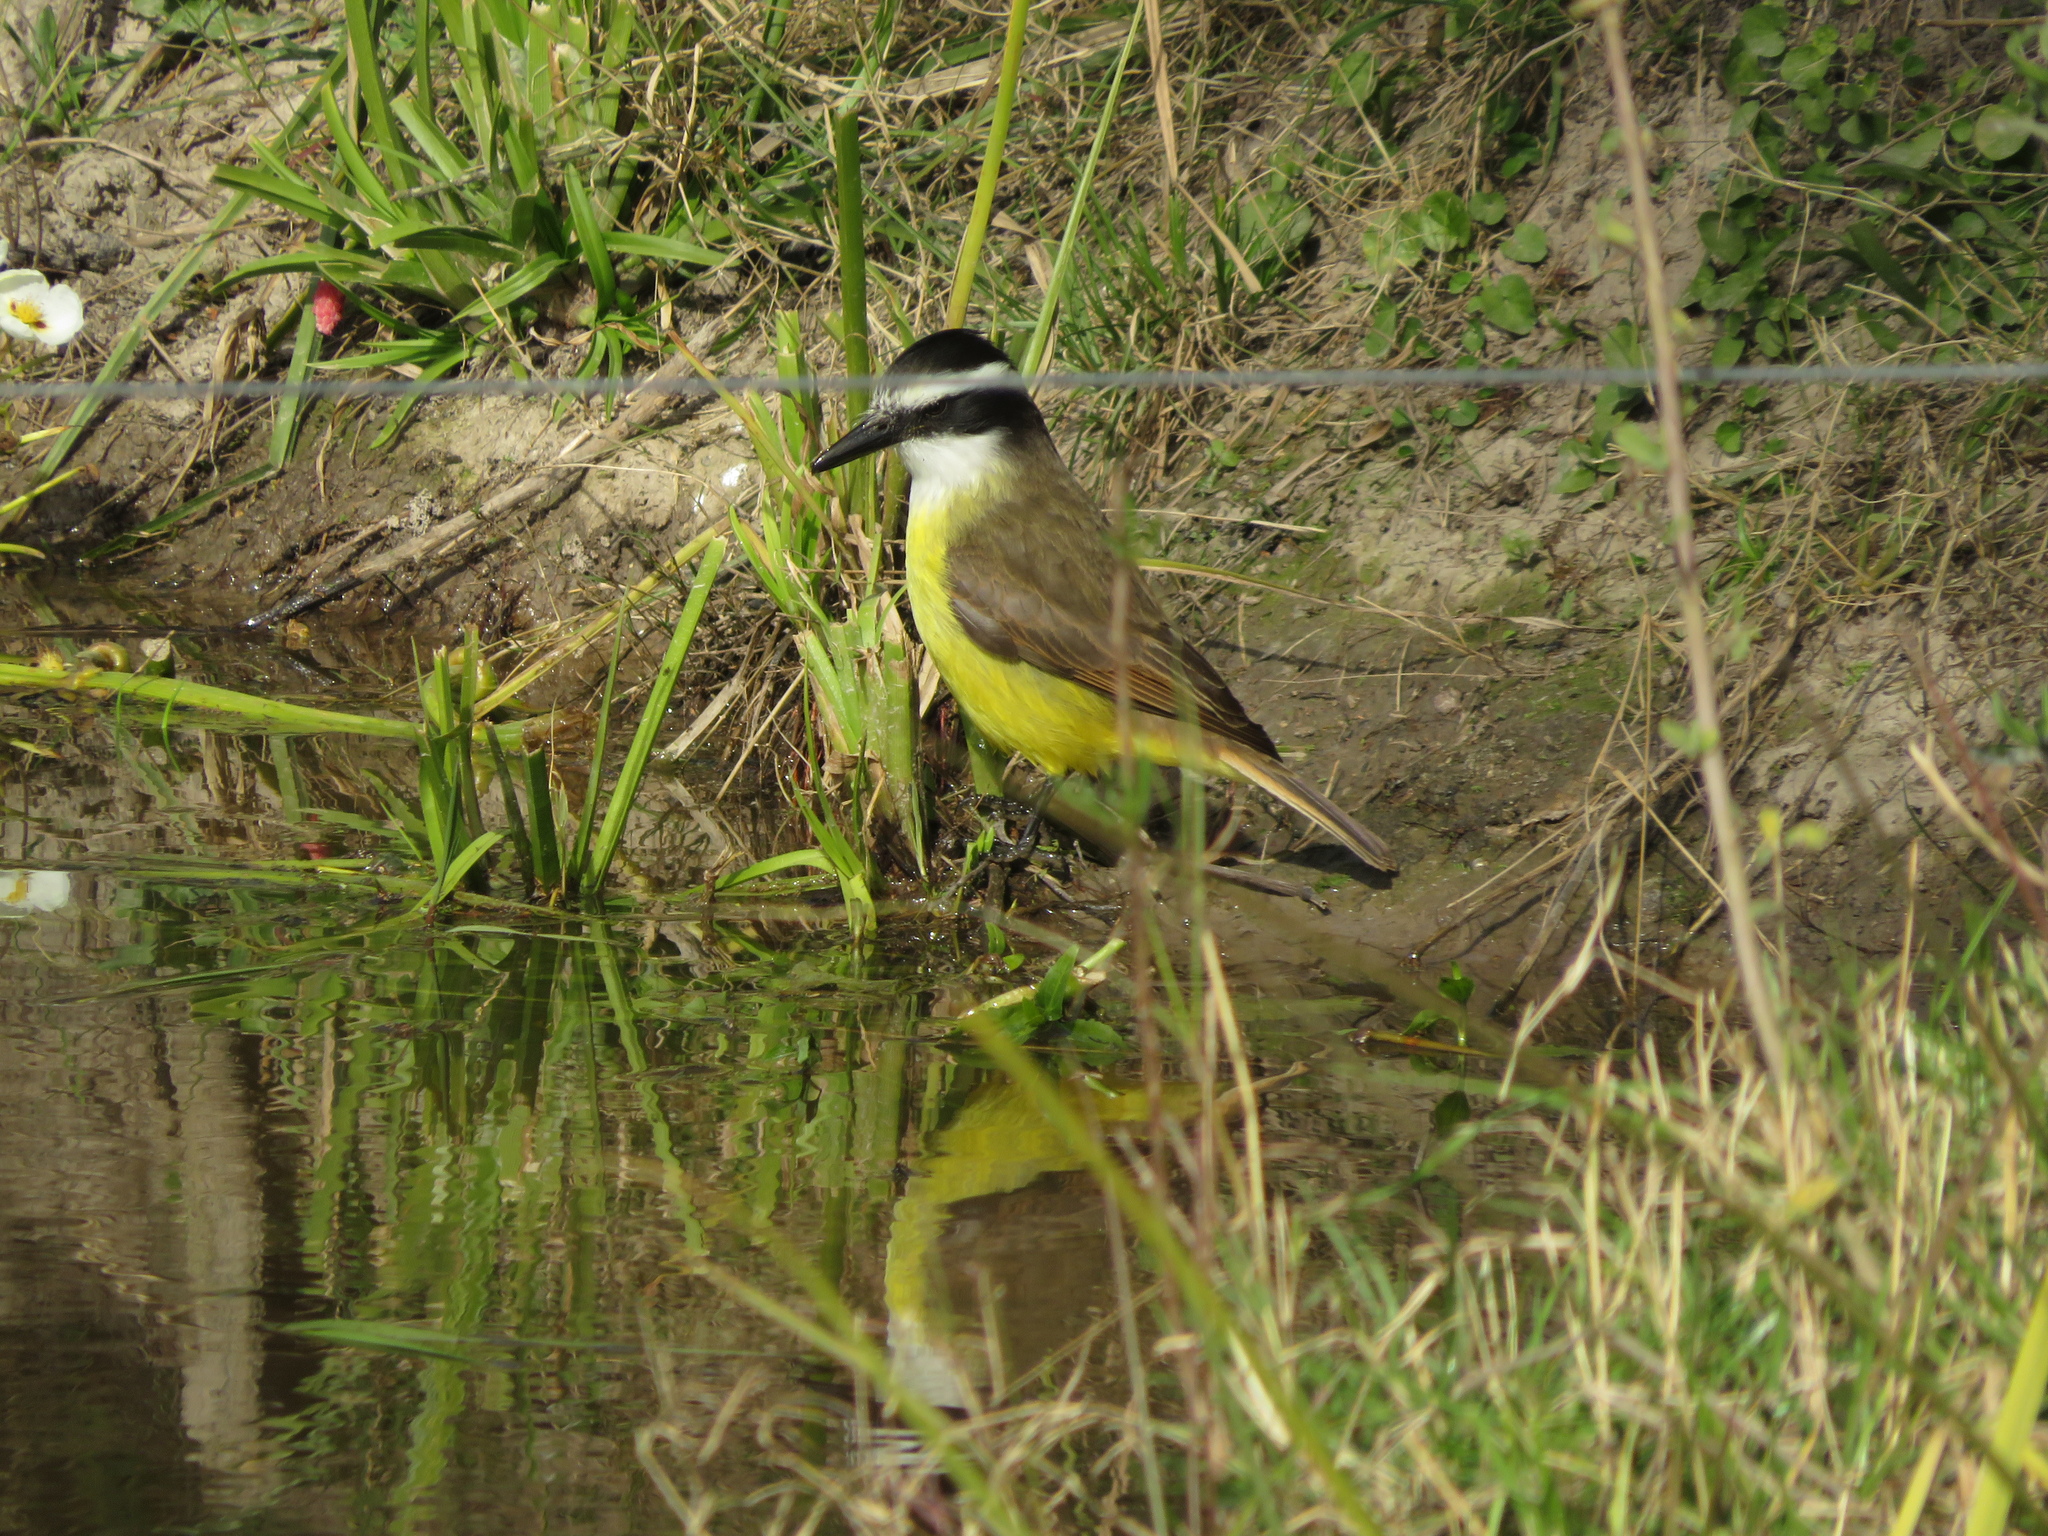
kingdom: Animalia
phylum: Chordata
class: Aves
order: Passeriformes
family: Tyrannidae
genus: Pitangus
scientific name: Pitangus sulphuratus
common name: Great kiskadee
